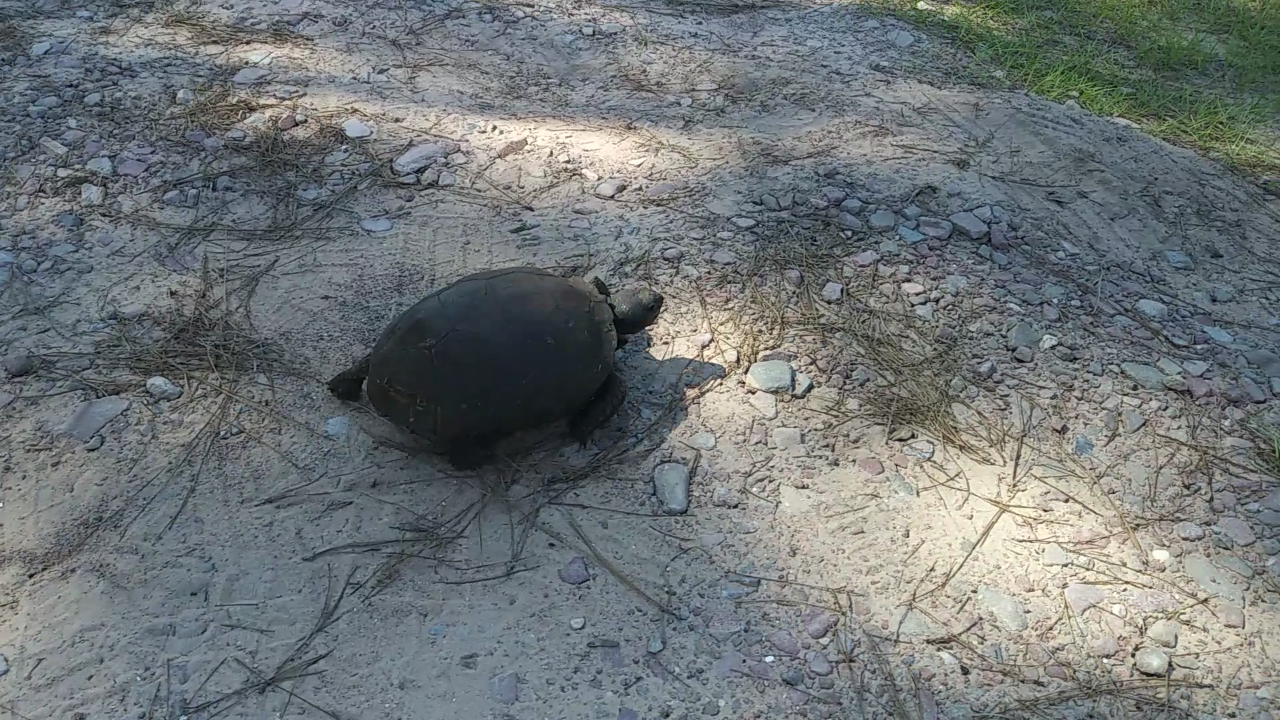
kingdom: Animalia
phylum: Chordata
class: Testudines
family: Testudinidae
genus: Gopherus
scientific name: Gopherus polyphemus
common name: Florida gopher tortoise
